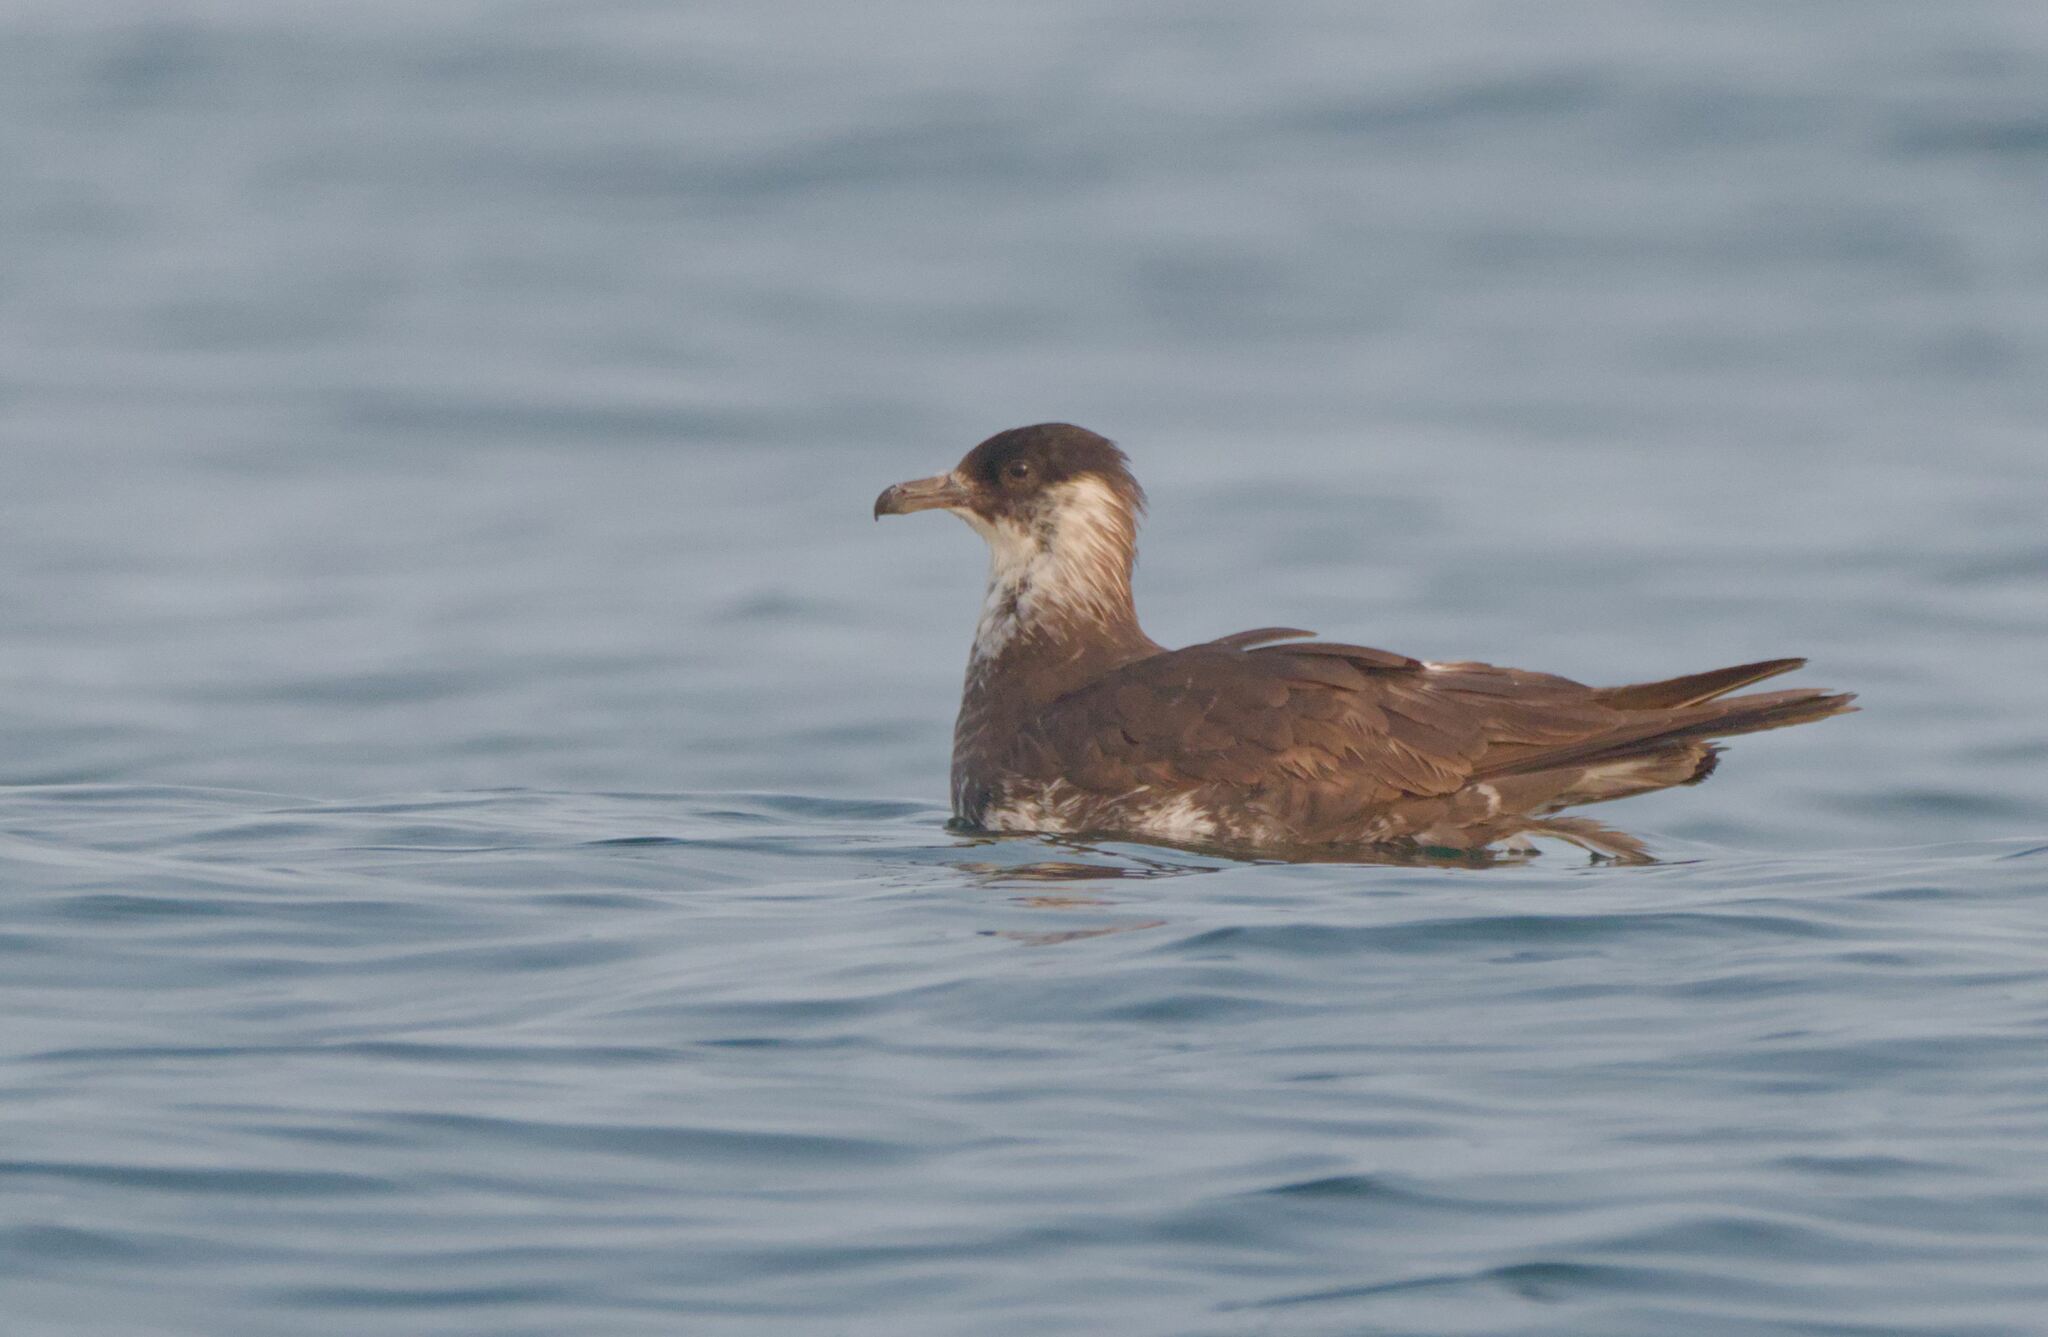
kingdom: Animalia
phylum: Chordata
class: Aves
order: Charadriiformes
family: Stercorariidae
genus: Stercorarius
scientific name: Stercorarius pomarinus
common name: Pomarine jaeger
